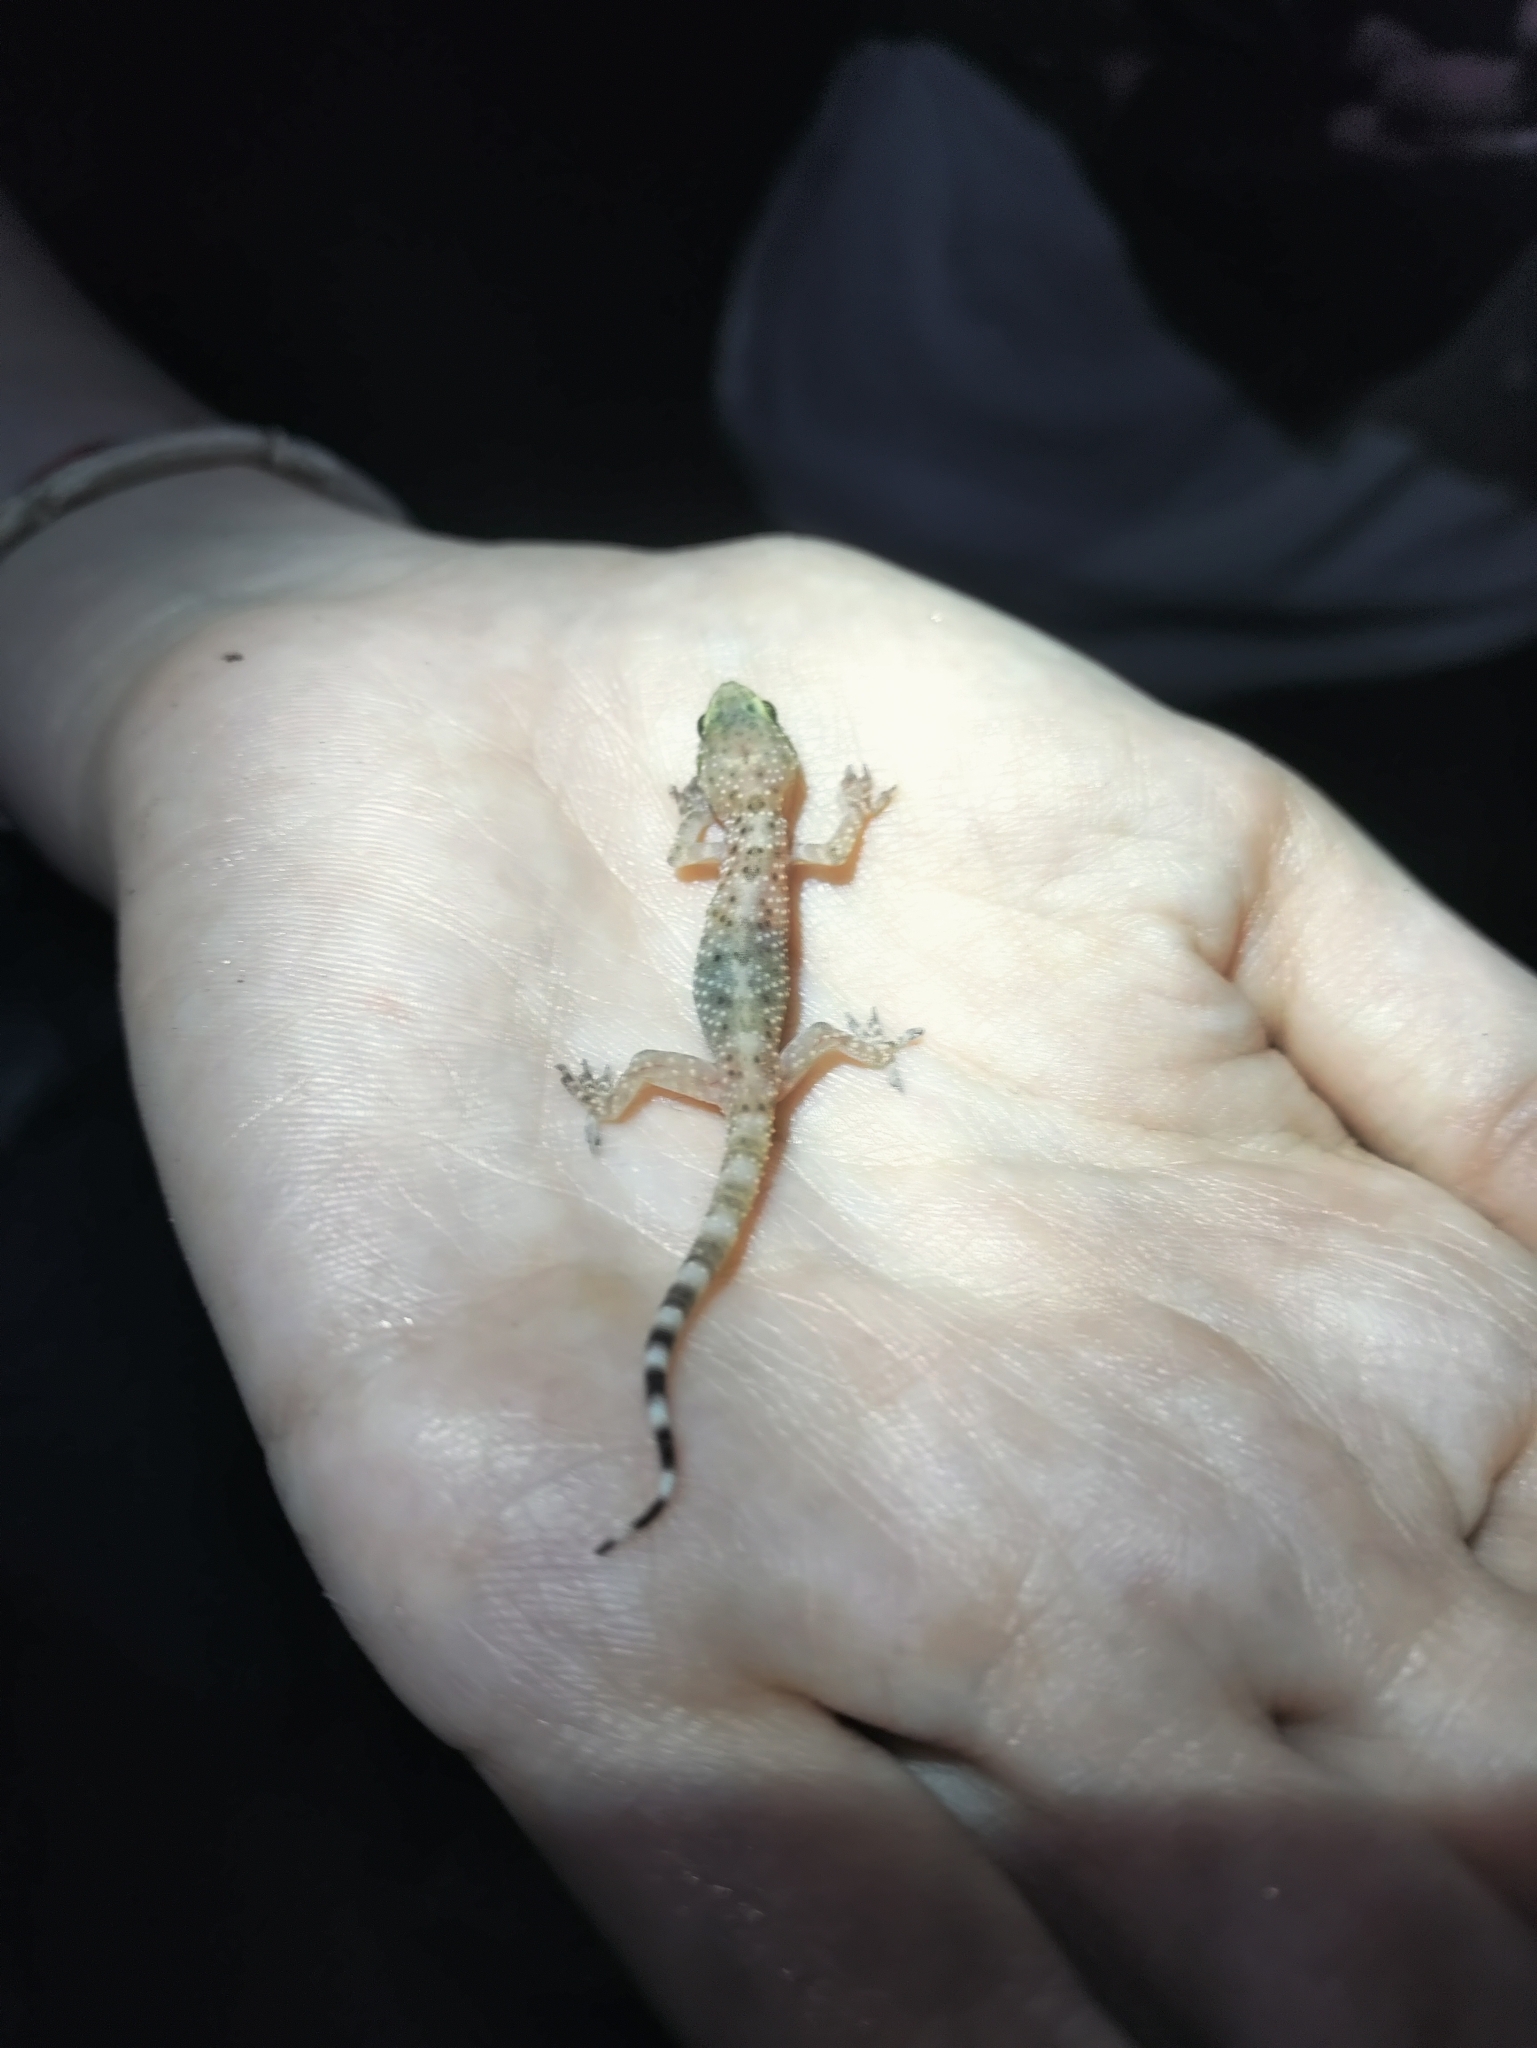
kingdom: Animalia
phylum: Chordata
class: Squamata
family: Gekkonidae
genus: Hemidactylus
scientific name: Hemidactylus turcicus
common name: Turkish gecko
